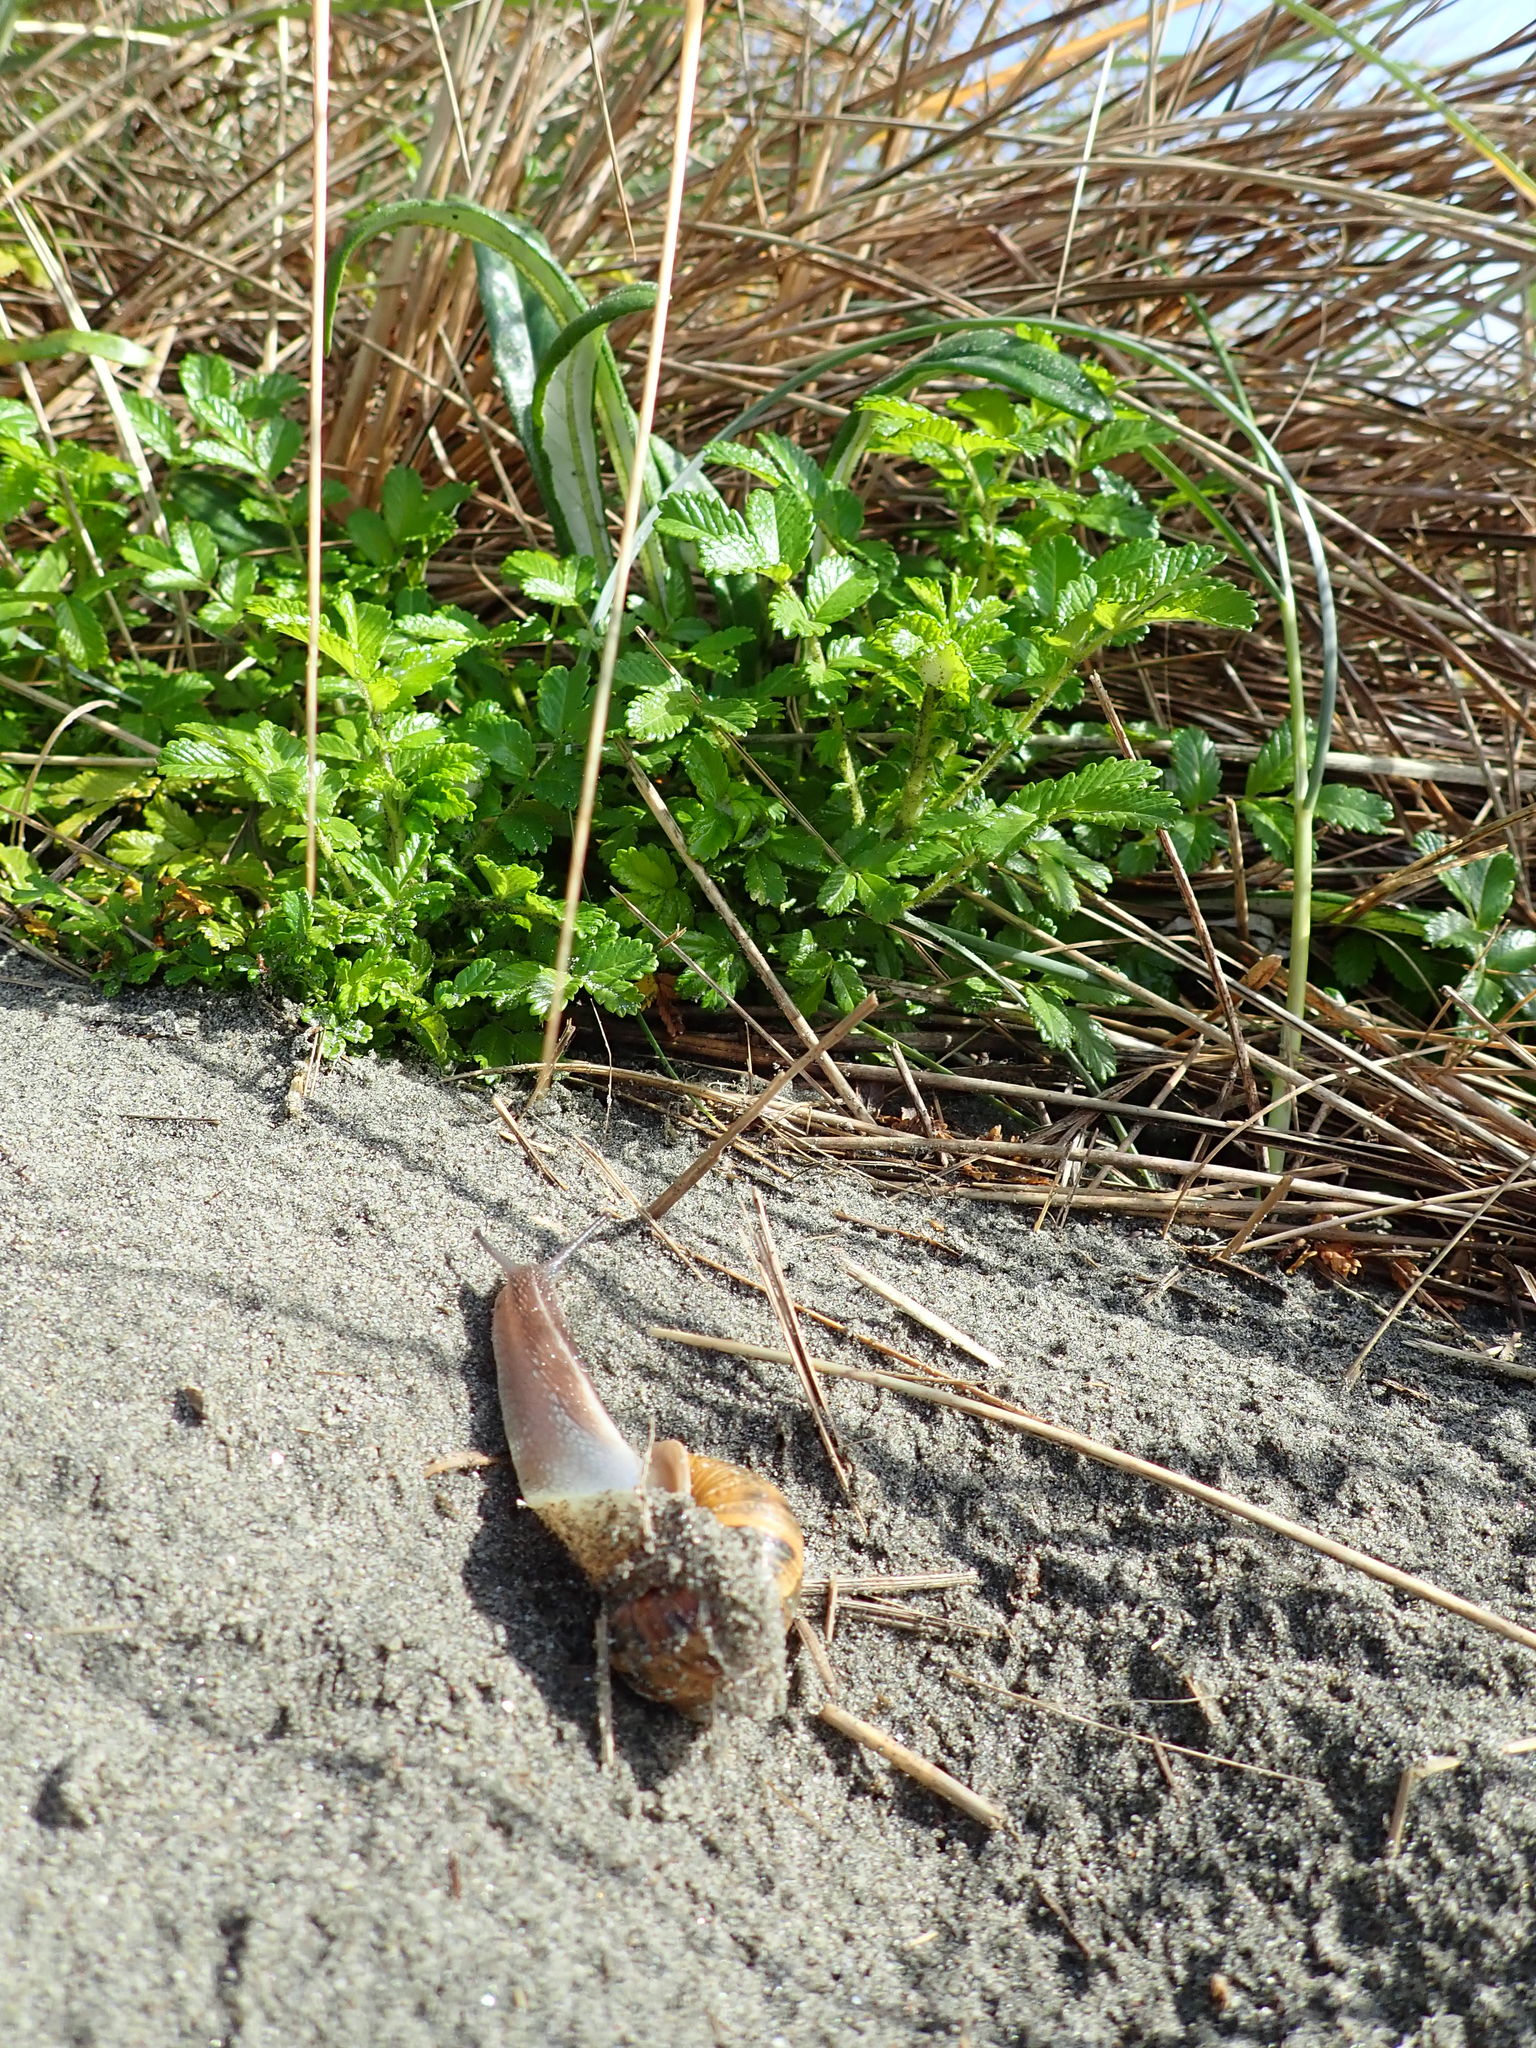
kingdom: Animalia
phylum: Mollusca
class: Gastropoda
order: Stylommatophora
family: Helicidae
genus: Cornu
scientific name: Cornu aspersum
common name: Brown garden snail
